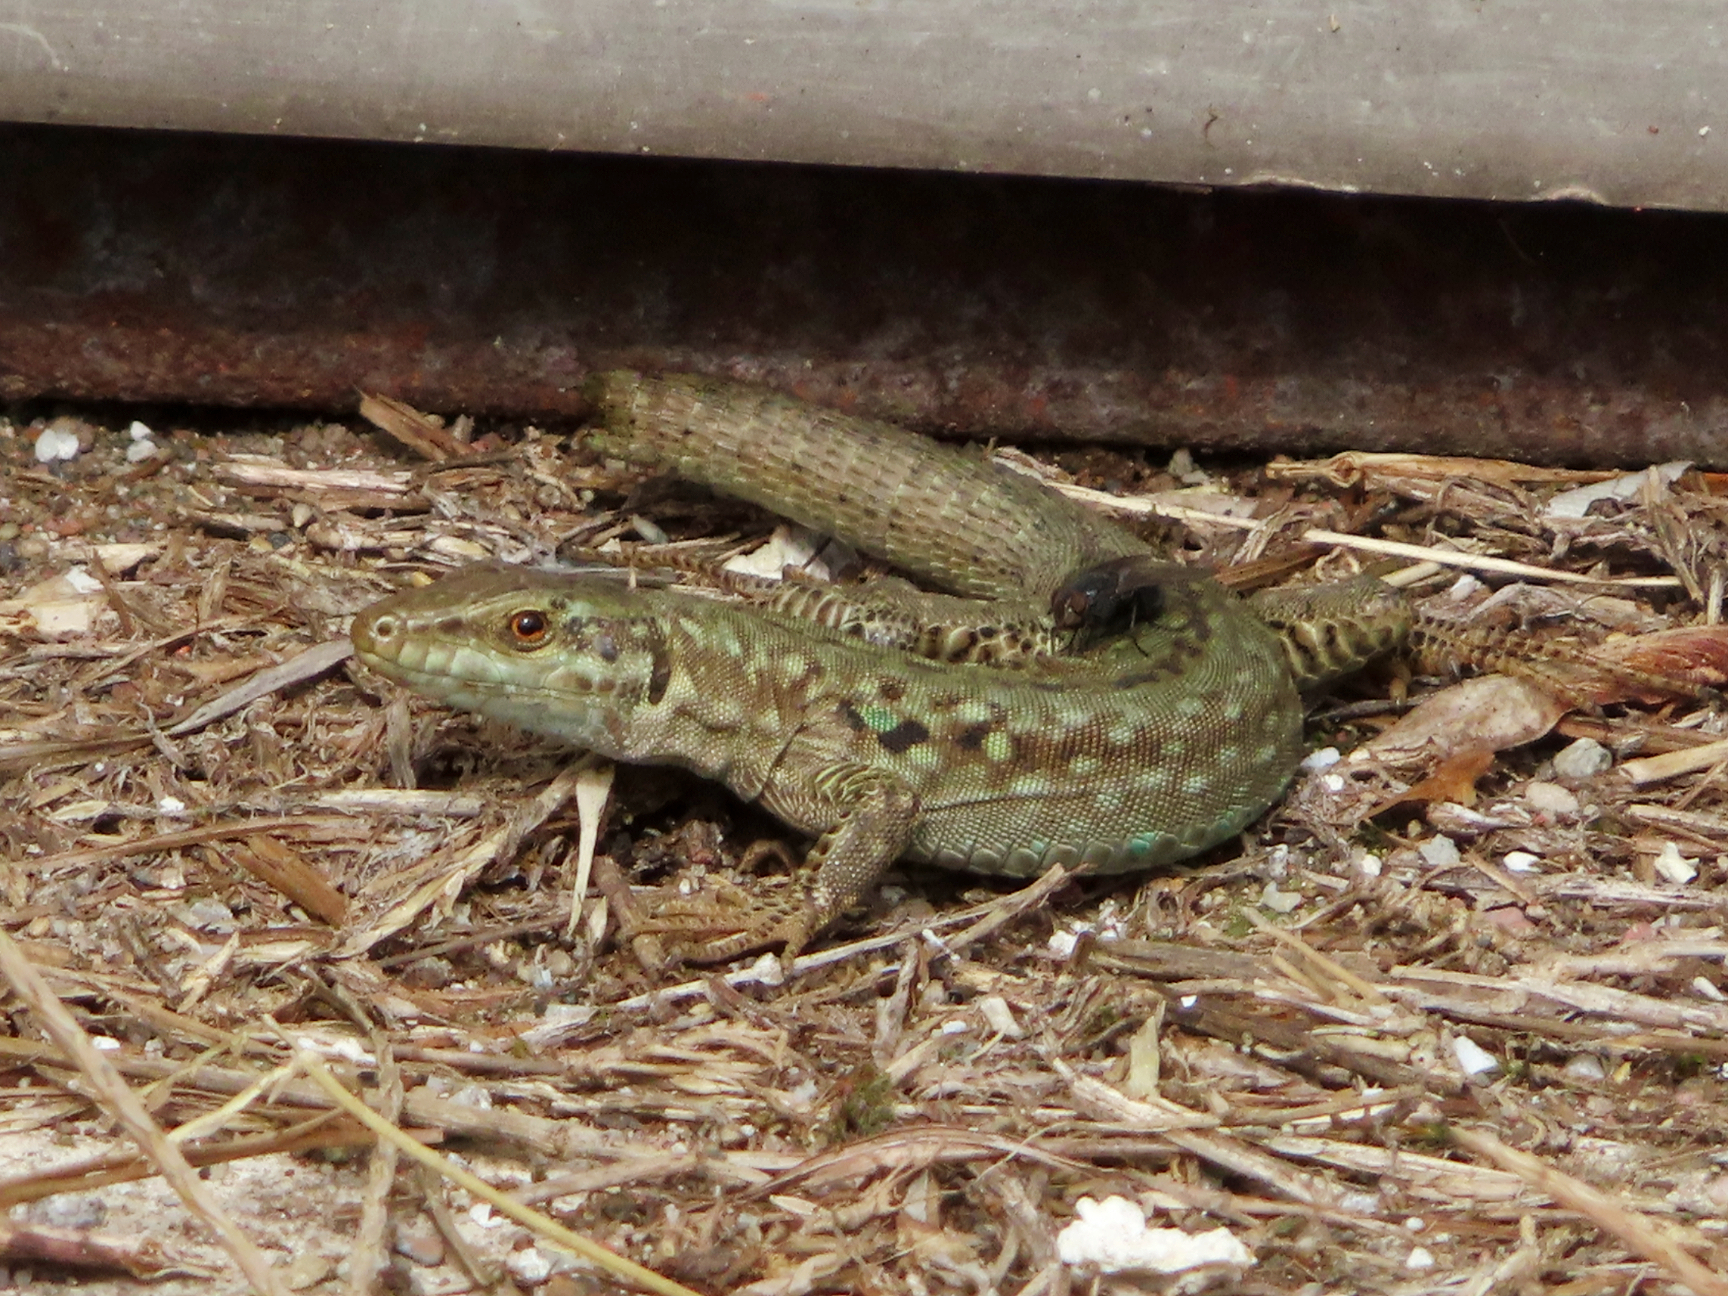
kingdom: Animalia
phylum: Chordata
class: Squamata
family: Lacertidae
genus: Podarcis
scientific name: Podarcis siculus
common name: Italian wall lizard
